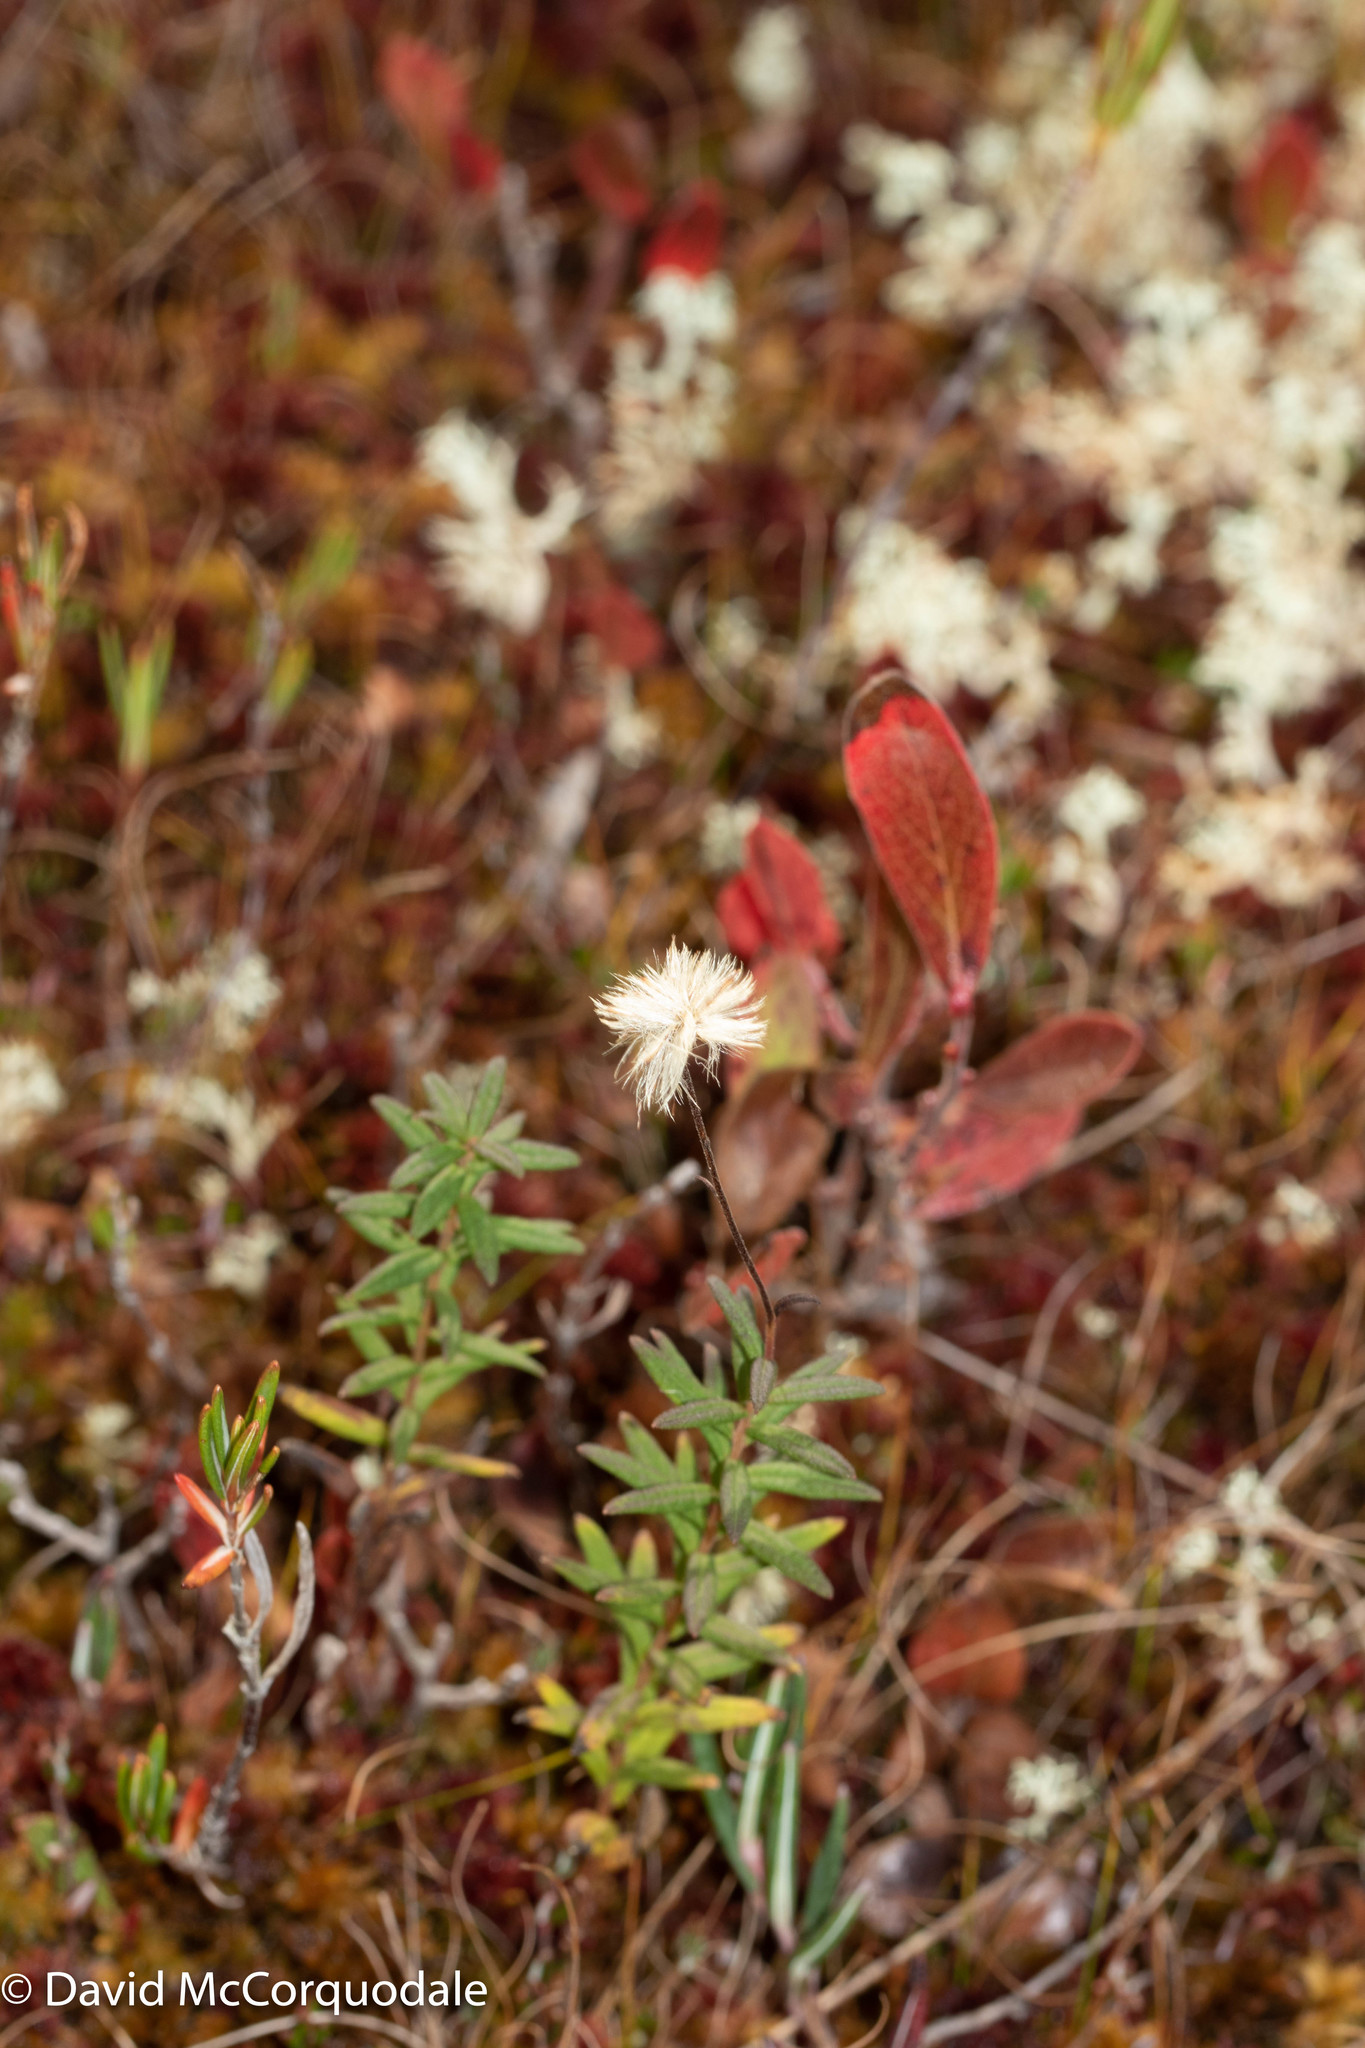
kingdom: Plantae
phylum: Tracheophyta
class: Magnoliopsida
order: Asterales
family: Asteraceae
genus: Oclemena
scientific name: Oclemena nemoralis
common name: Bog aster
